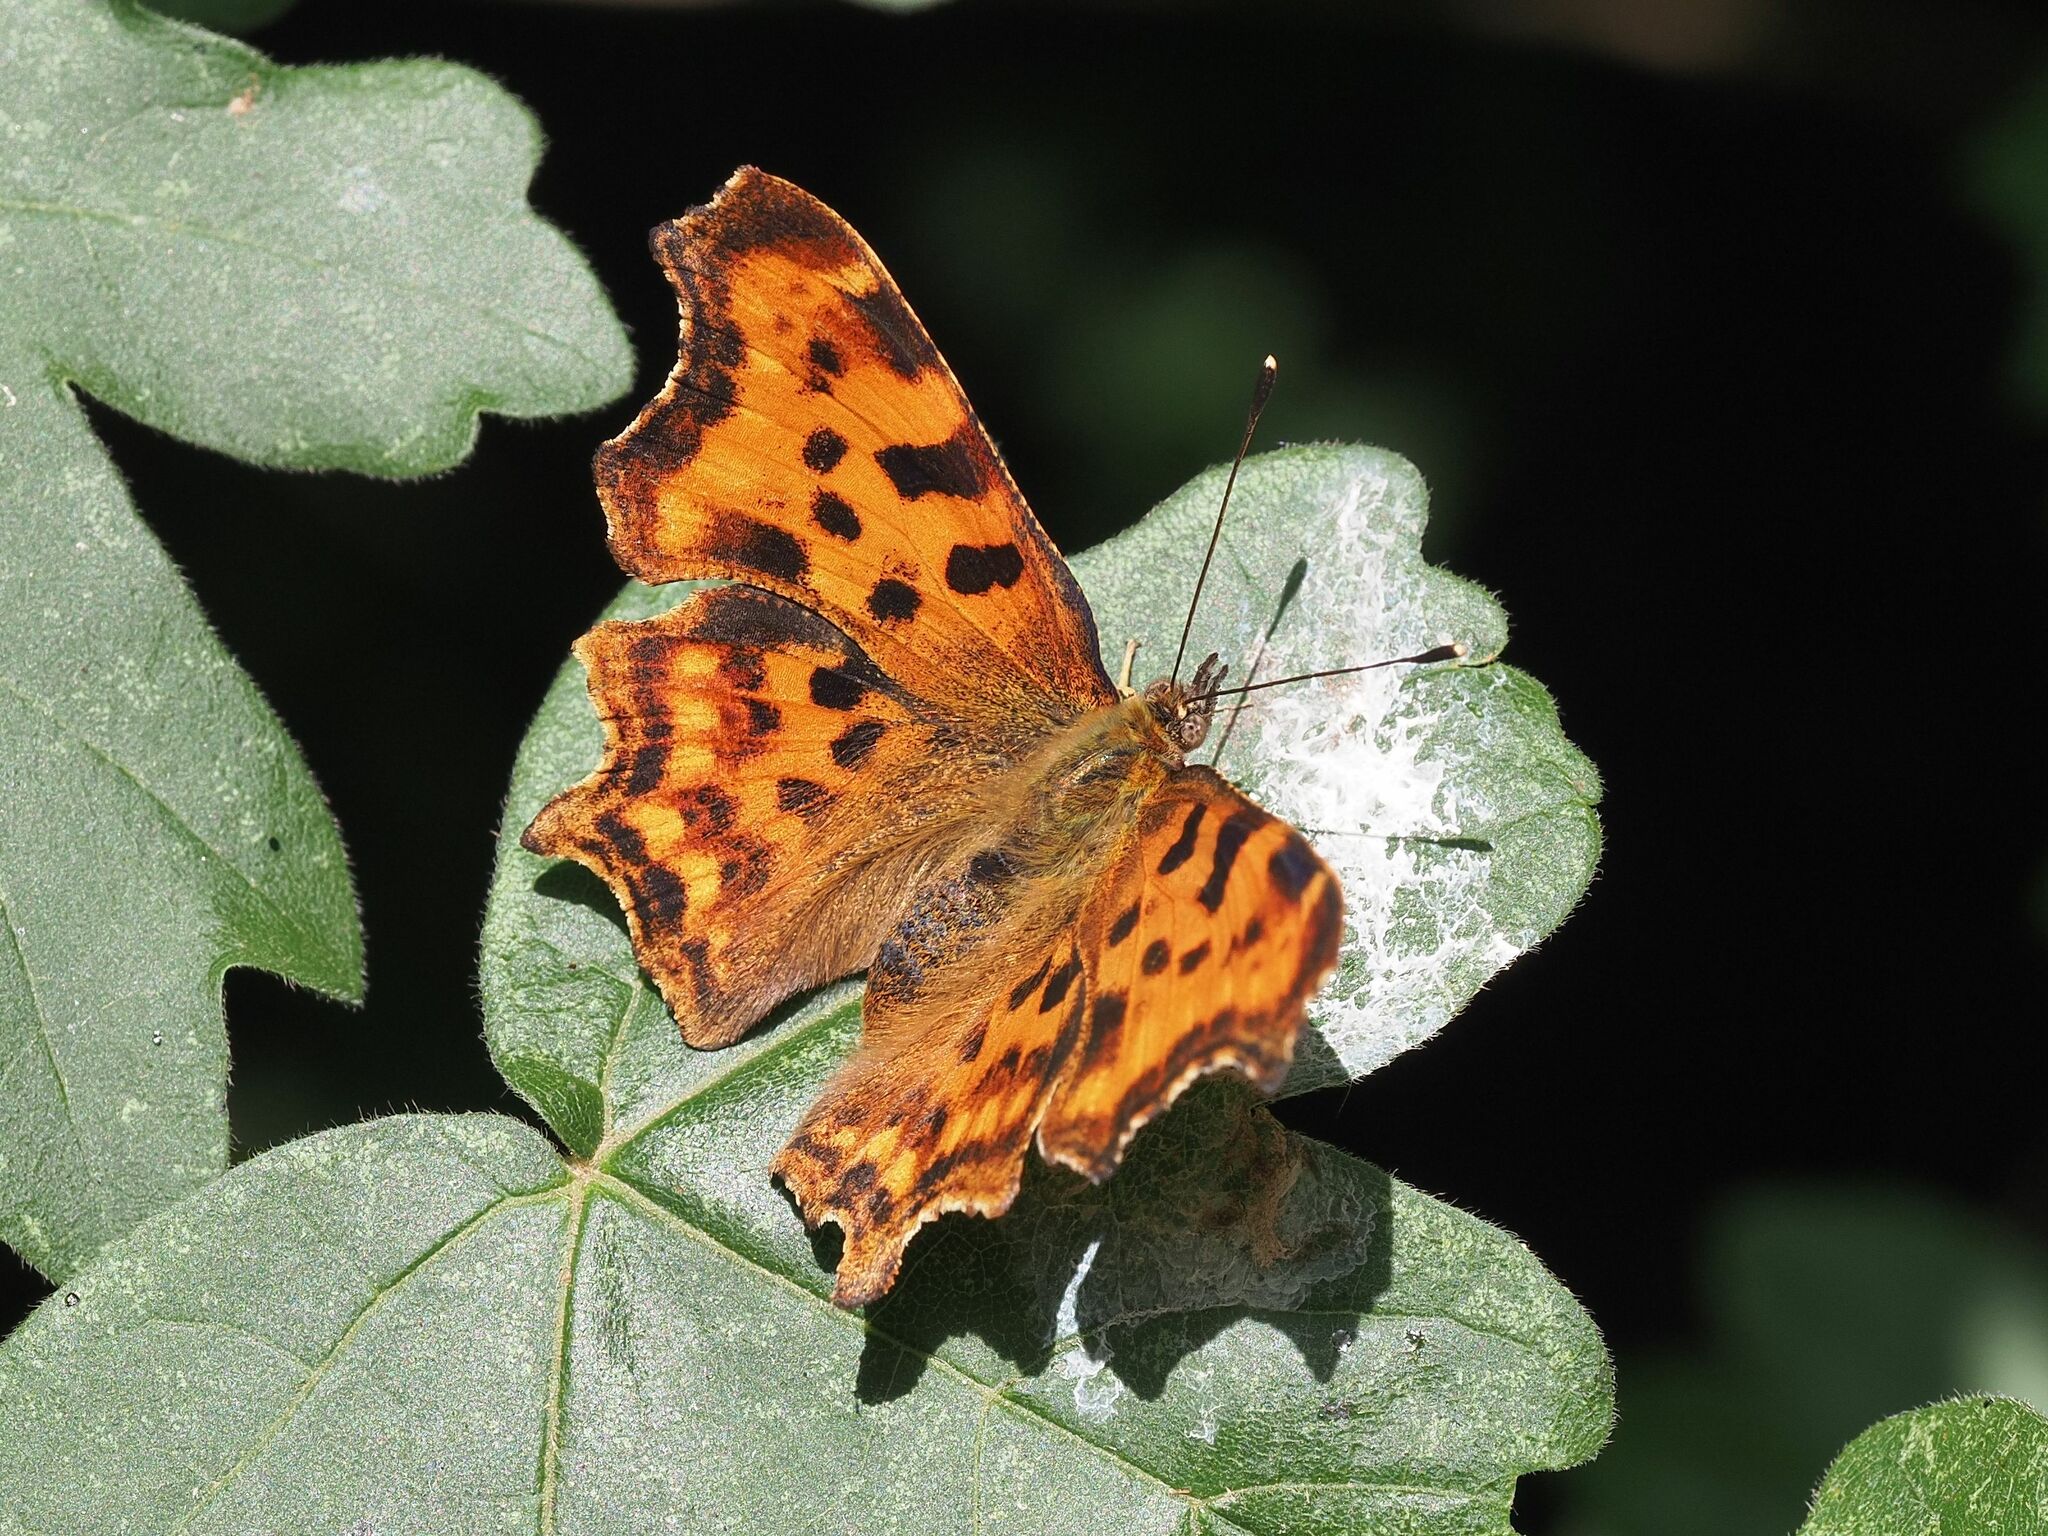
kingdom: Animalia
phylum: Arthropoda
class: Insecta
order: Lepidoptera
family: Nymphalidae
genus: Polygonia
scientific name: Polygonia c-album
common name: Comma
